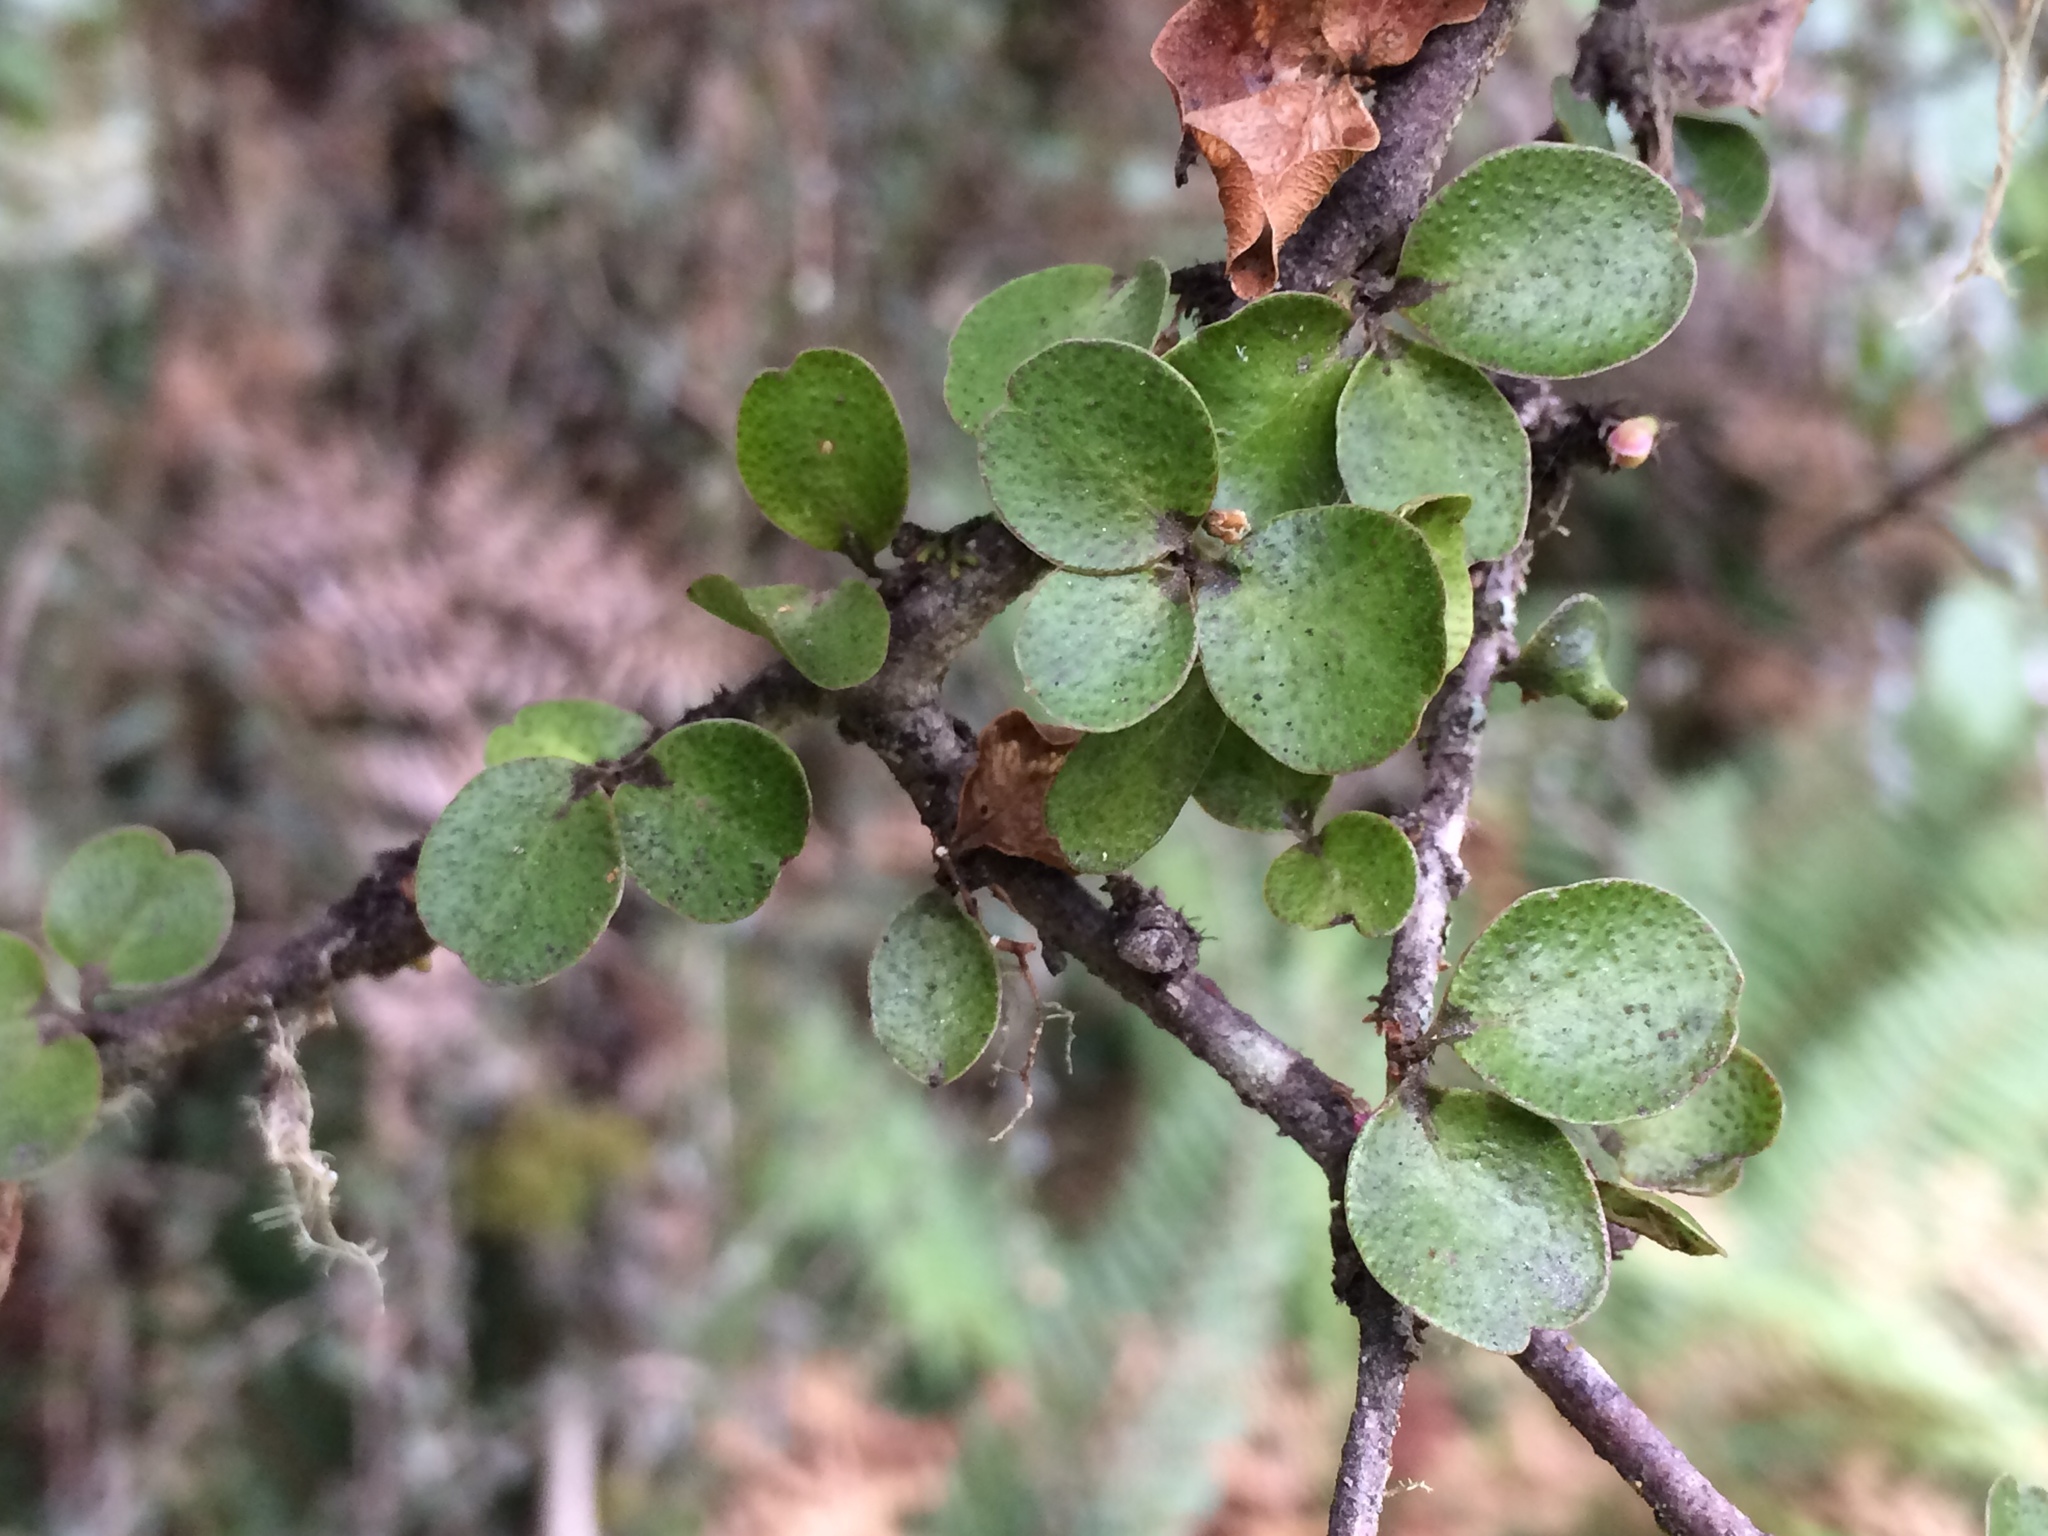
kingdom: Plantae
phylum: Tracheophyta
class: Magnoliopsida
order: Ericales
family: Primulaceae
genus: Myrsine
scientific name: Myrsine divaricata
